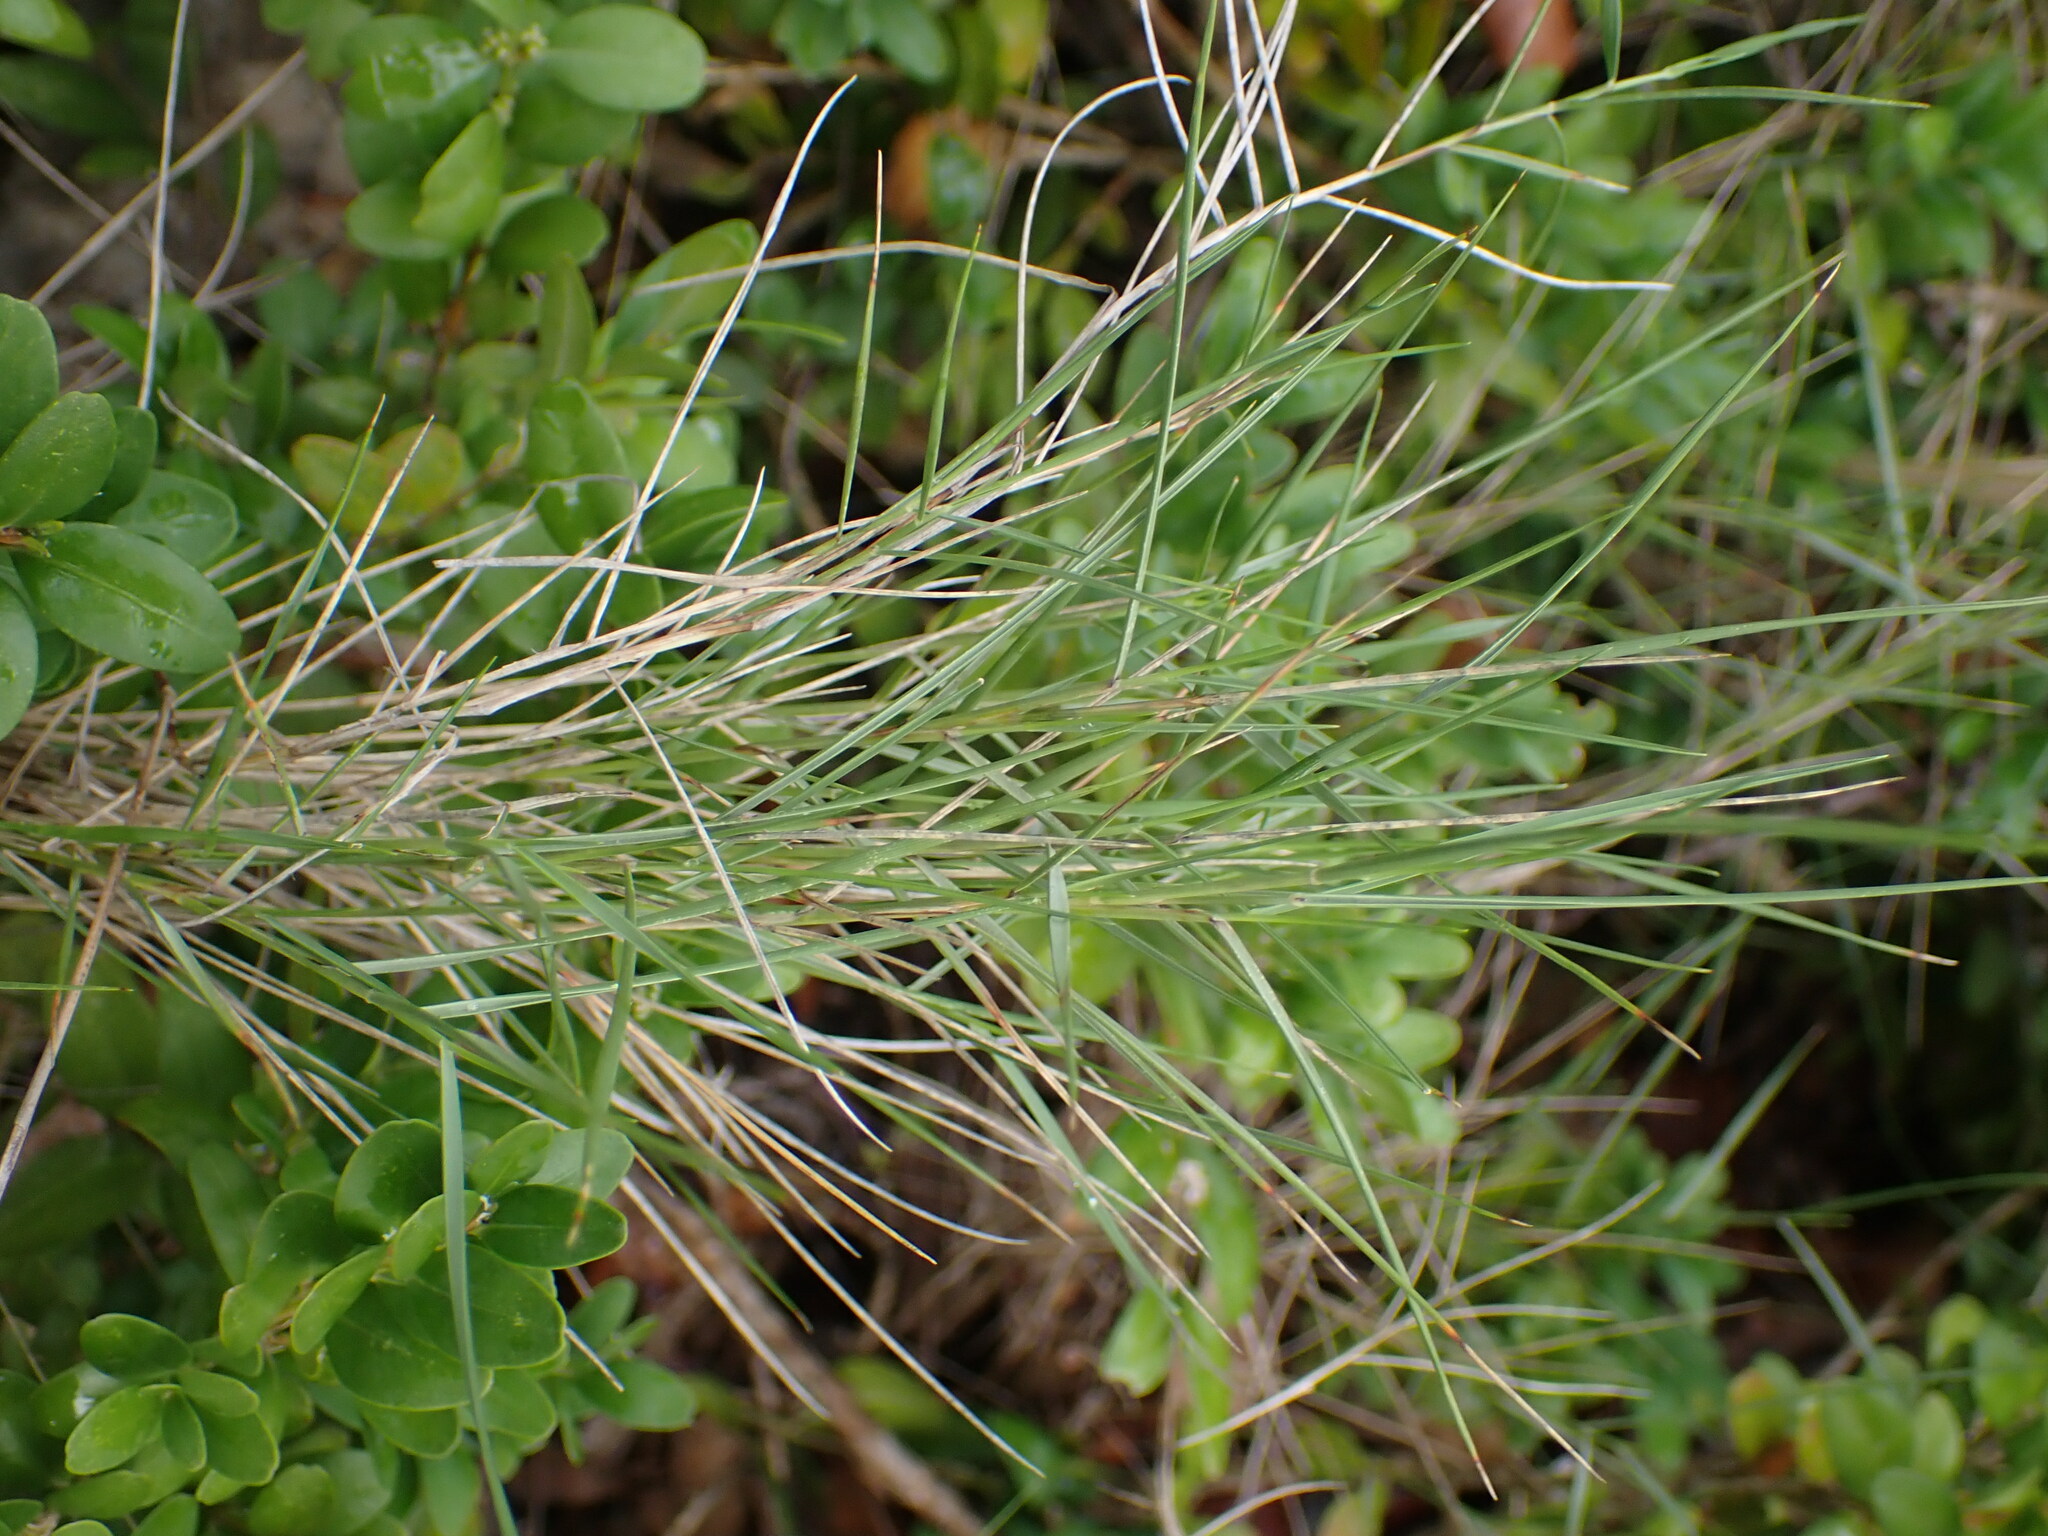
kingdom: Plantae
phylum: Tracheophyta
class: Liliopsida
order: Poales
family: Poaceae
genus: Brachypodium
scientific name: Brachypodium retusum
